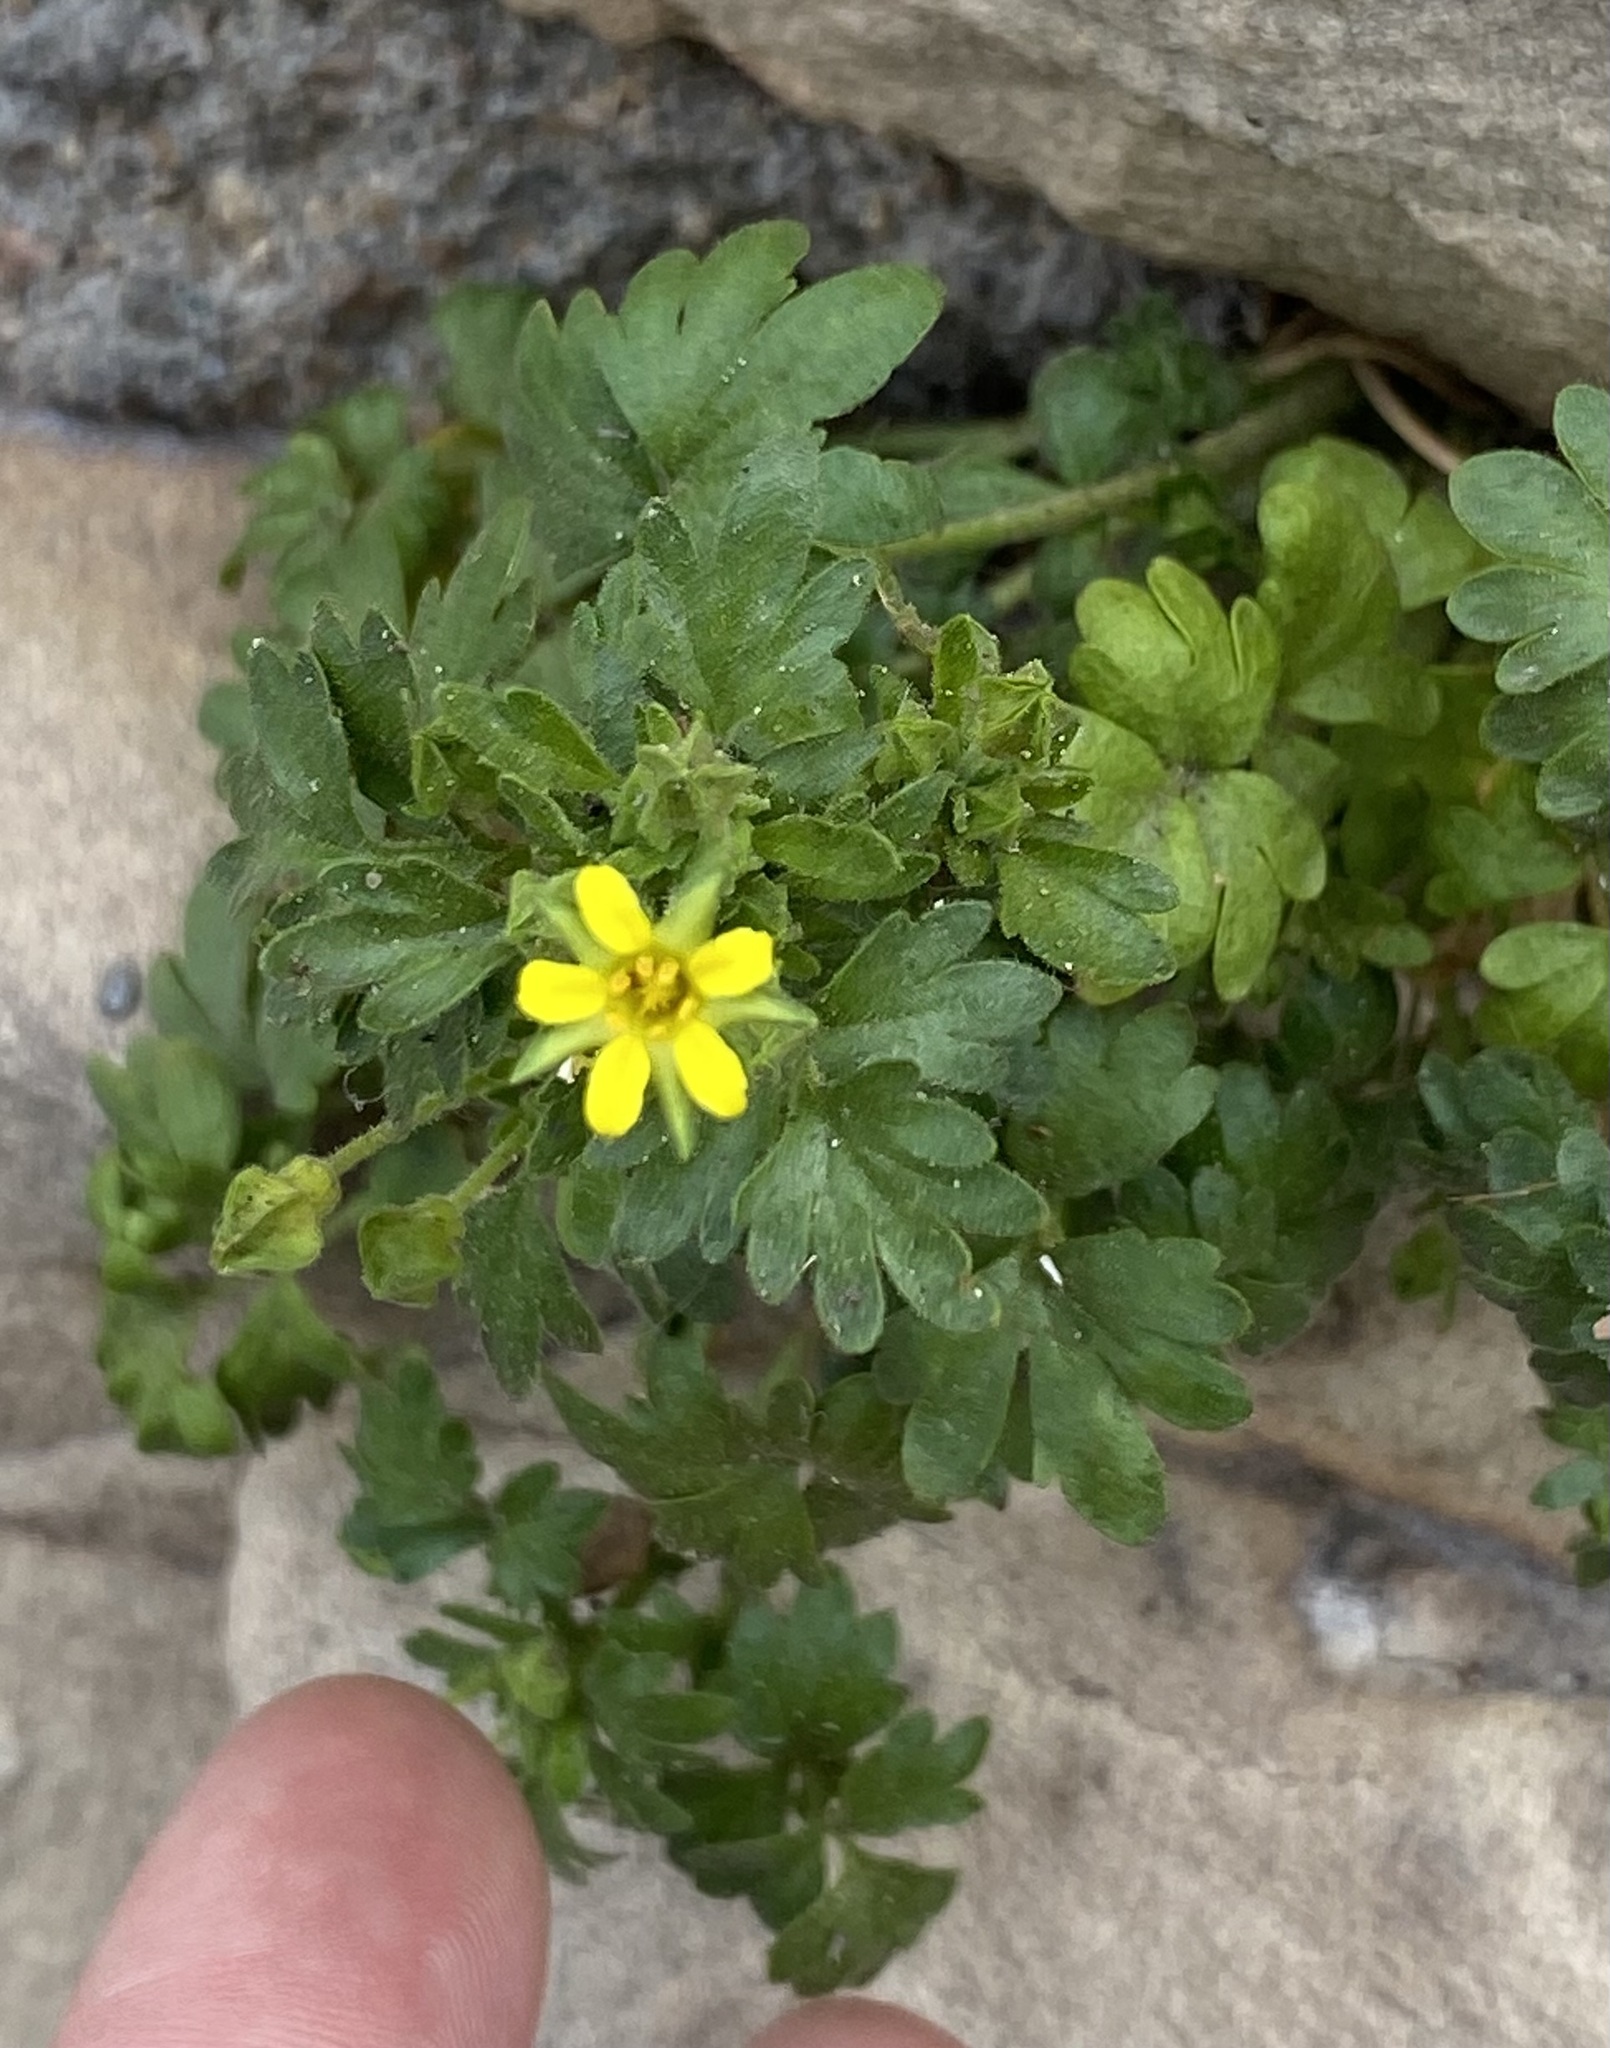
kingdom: Plantae
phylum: Tracheophyta
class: Magnoliopsida
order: Rosales
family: Rosaceae
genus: Potentilla
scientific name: Potentilla osterhoutii
